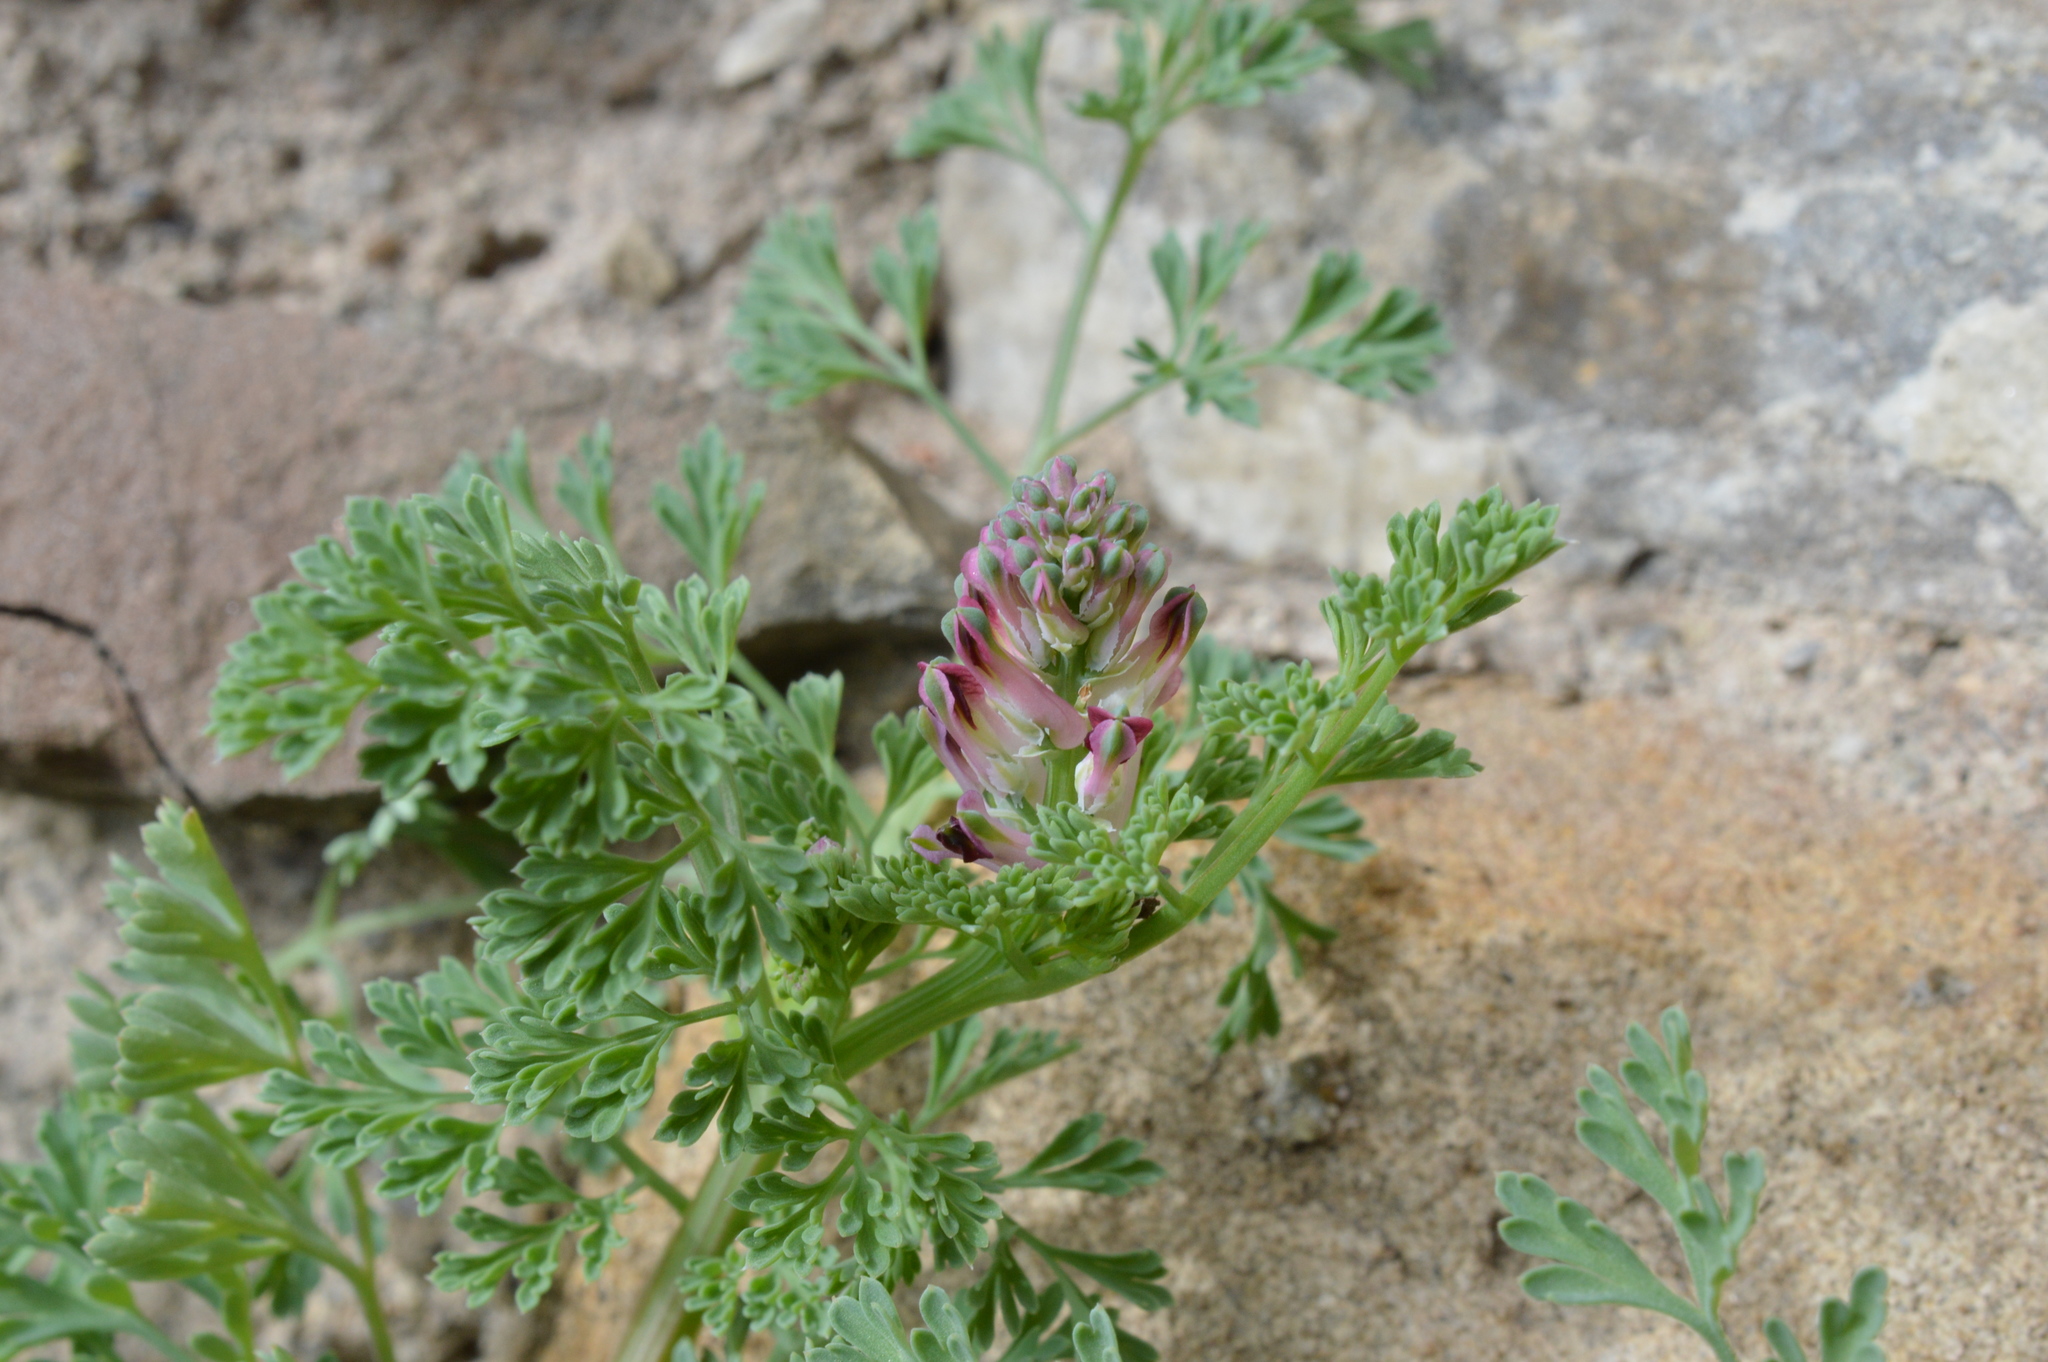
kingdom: Plantae
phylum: Tracheophyta
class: Magnoliopsida
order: Ranunculales
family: Papaveraceae
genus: Fumaria
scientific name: Fumaria officinalis
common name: Common fumitory
